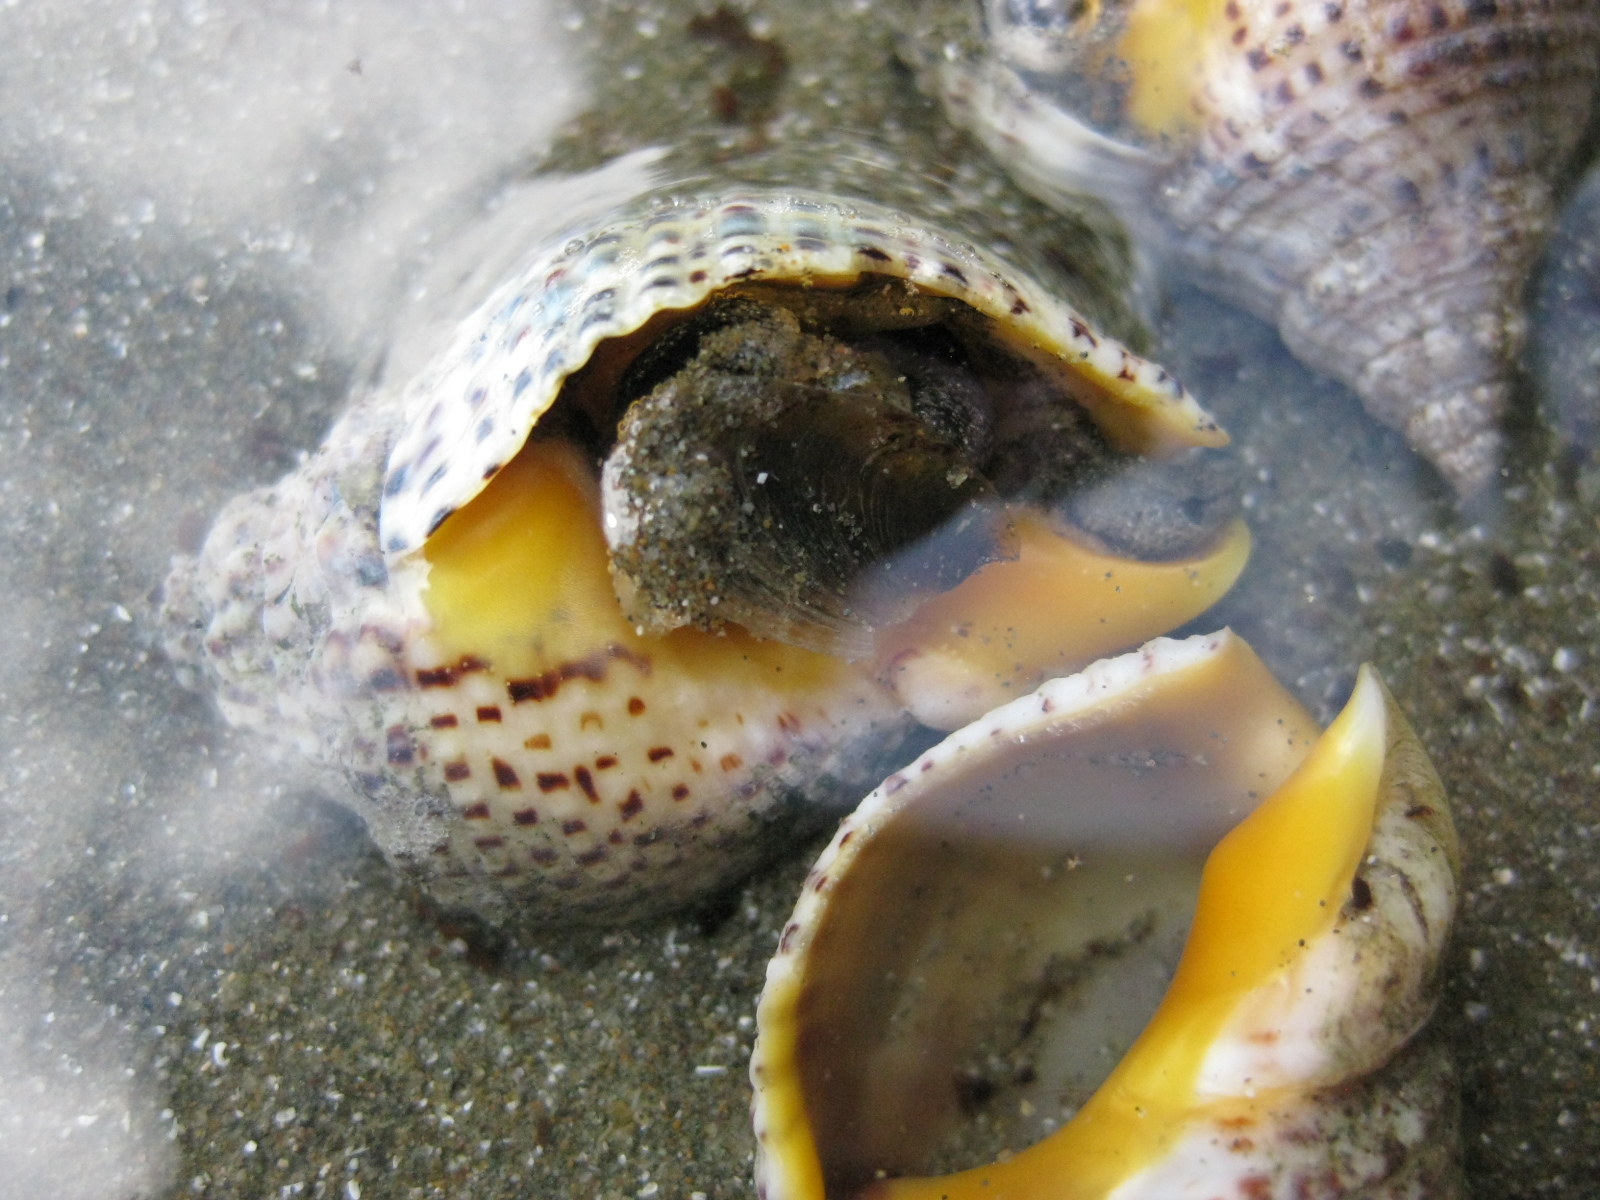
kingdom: Animalia
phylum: Mollusca
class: Gastropoda
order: Neogastropoda
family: Cominellidae
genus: Cominella
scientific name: Cominella adspersa
